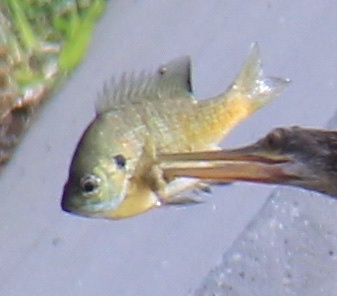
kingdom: Animalia
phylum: Chordata
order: Perciformes
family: Centrarchidae
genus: Lepomis
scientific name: Lepomis macrochirus
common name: Bluegill
